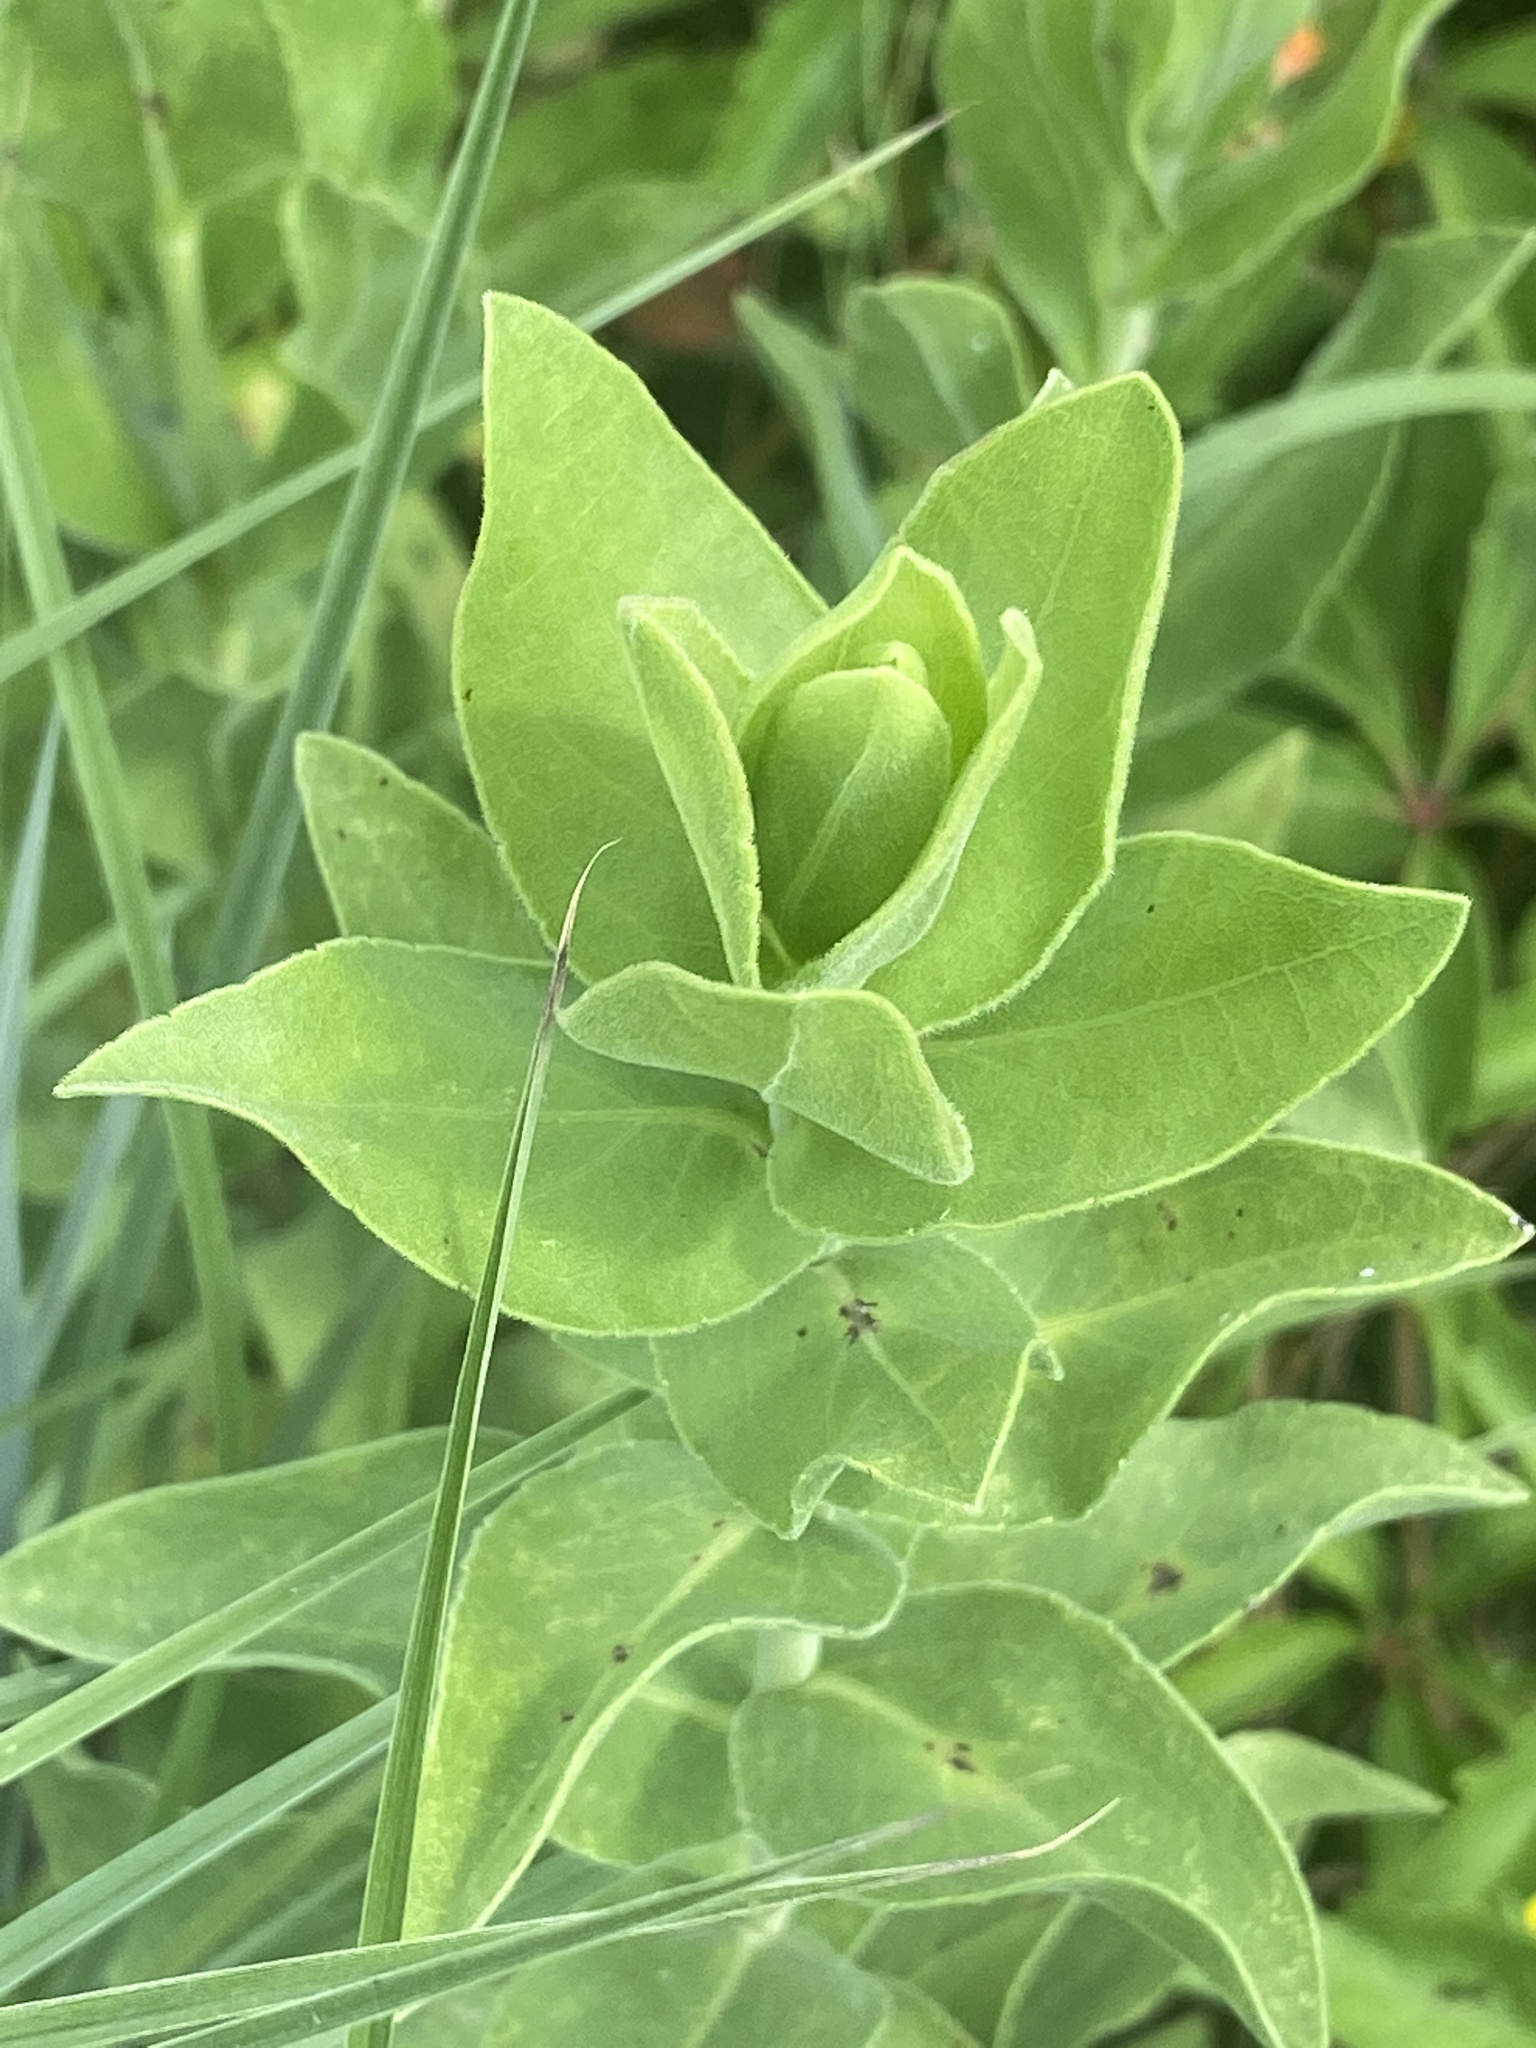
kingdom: Plantae
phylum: Tracheophyta
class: Magnoliopsida
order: Asterales
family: Asteraceae
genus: Solidago
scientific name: Solidago rigida
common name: Rigid goldenrod
